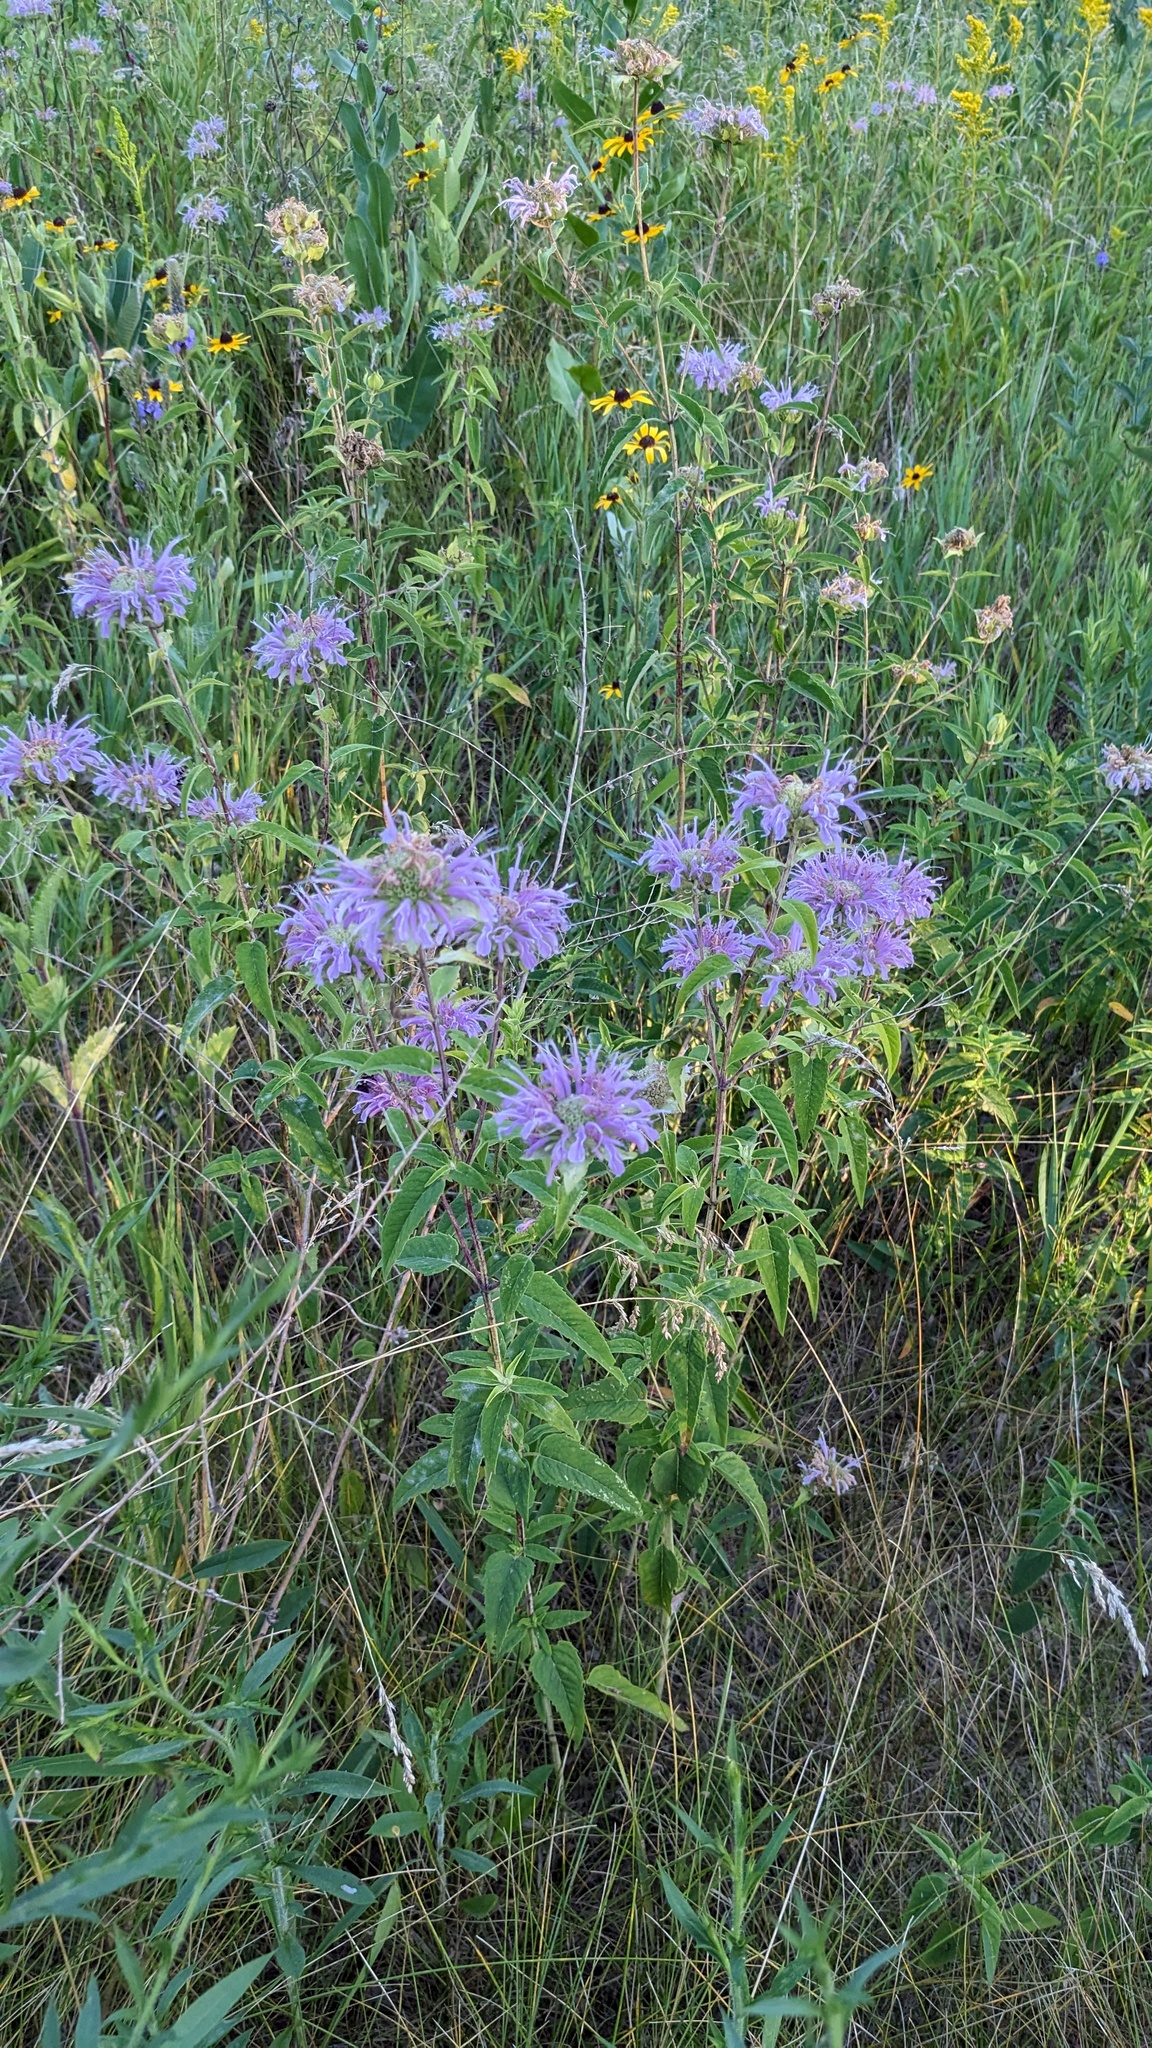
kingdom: Plantae
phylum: Tracheophyta
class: Magnoliopsida
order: Lamiales
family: Lamiaceae
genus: Monarda
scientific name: Monarda fistulosa
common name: Purple beebalm
